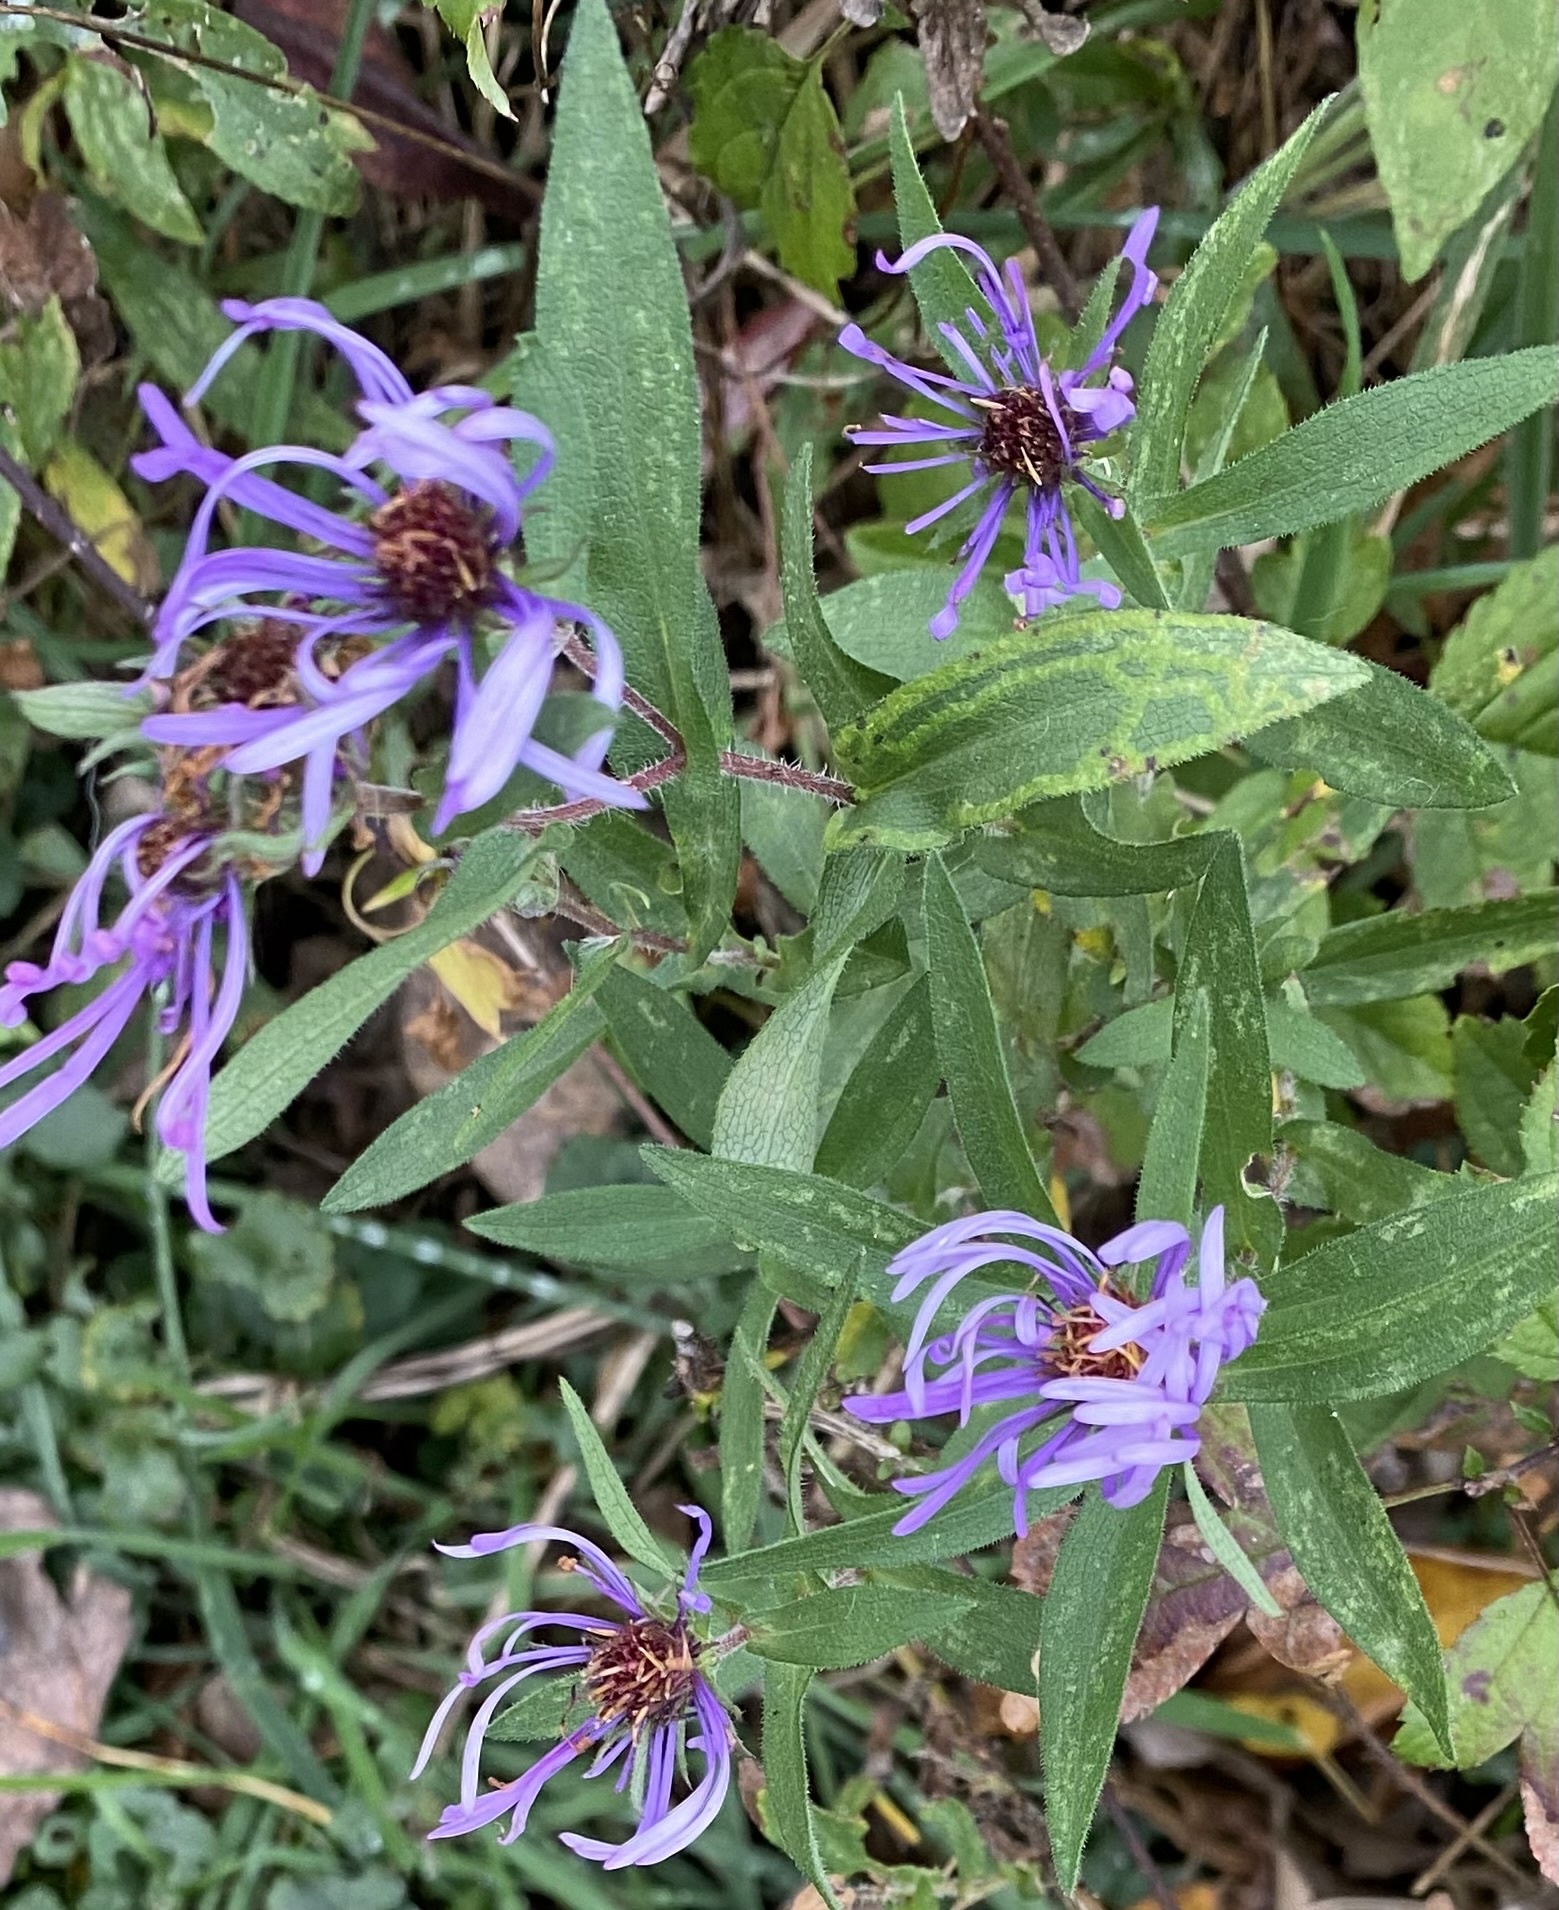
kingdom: Plantae
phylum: Tracheophyta
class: Magnoliopsida
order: Asterales
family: Asteraceae
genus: Symphyotrichum
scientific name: Symphyotrichum novae-angliae
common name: Michaelmas daisy
